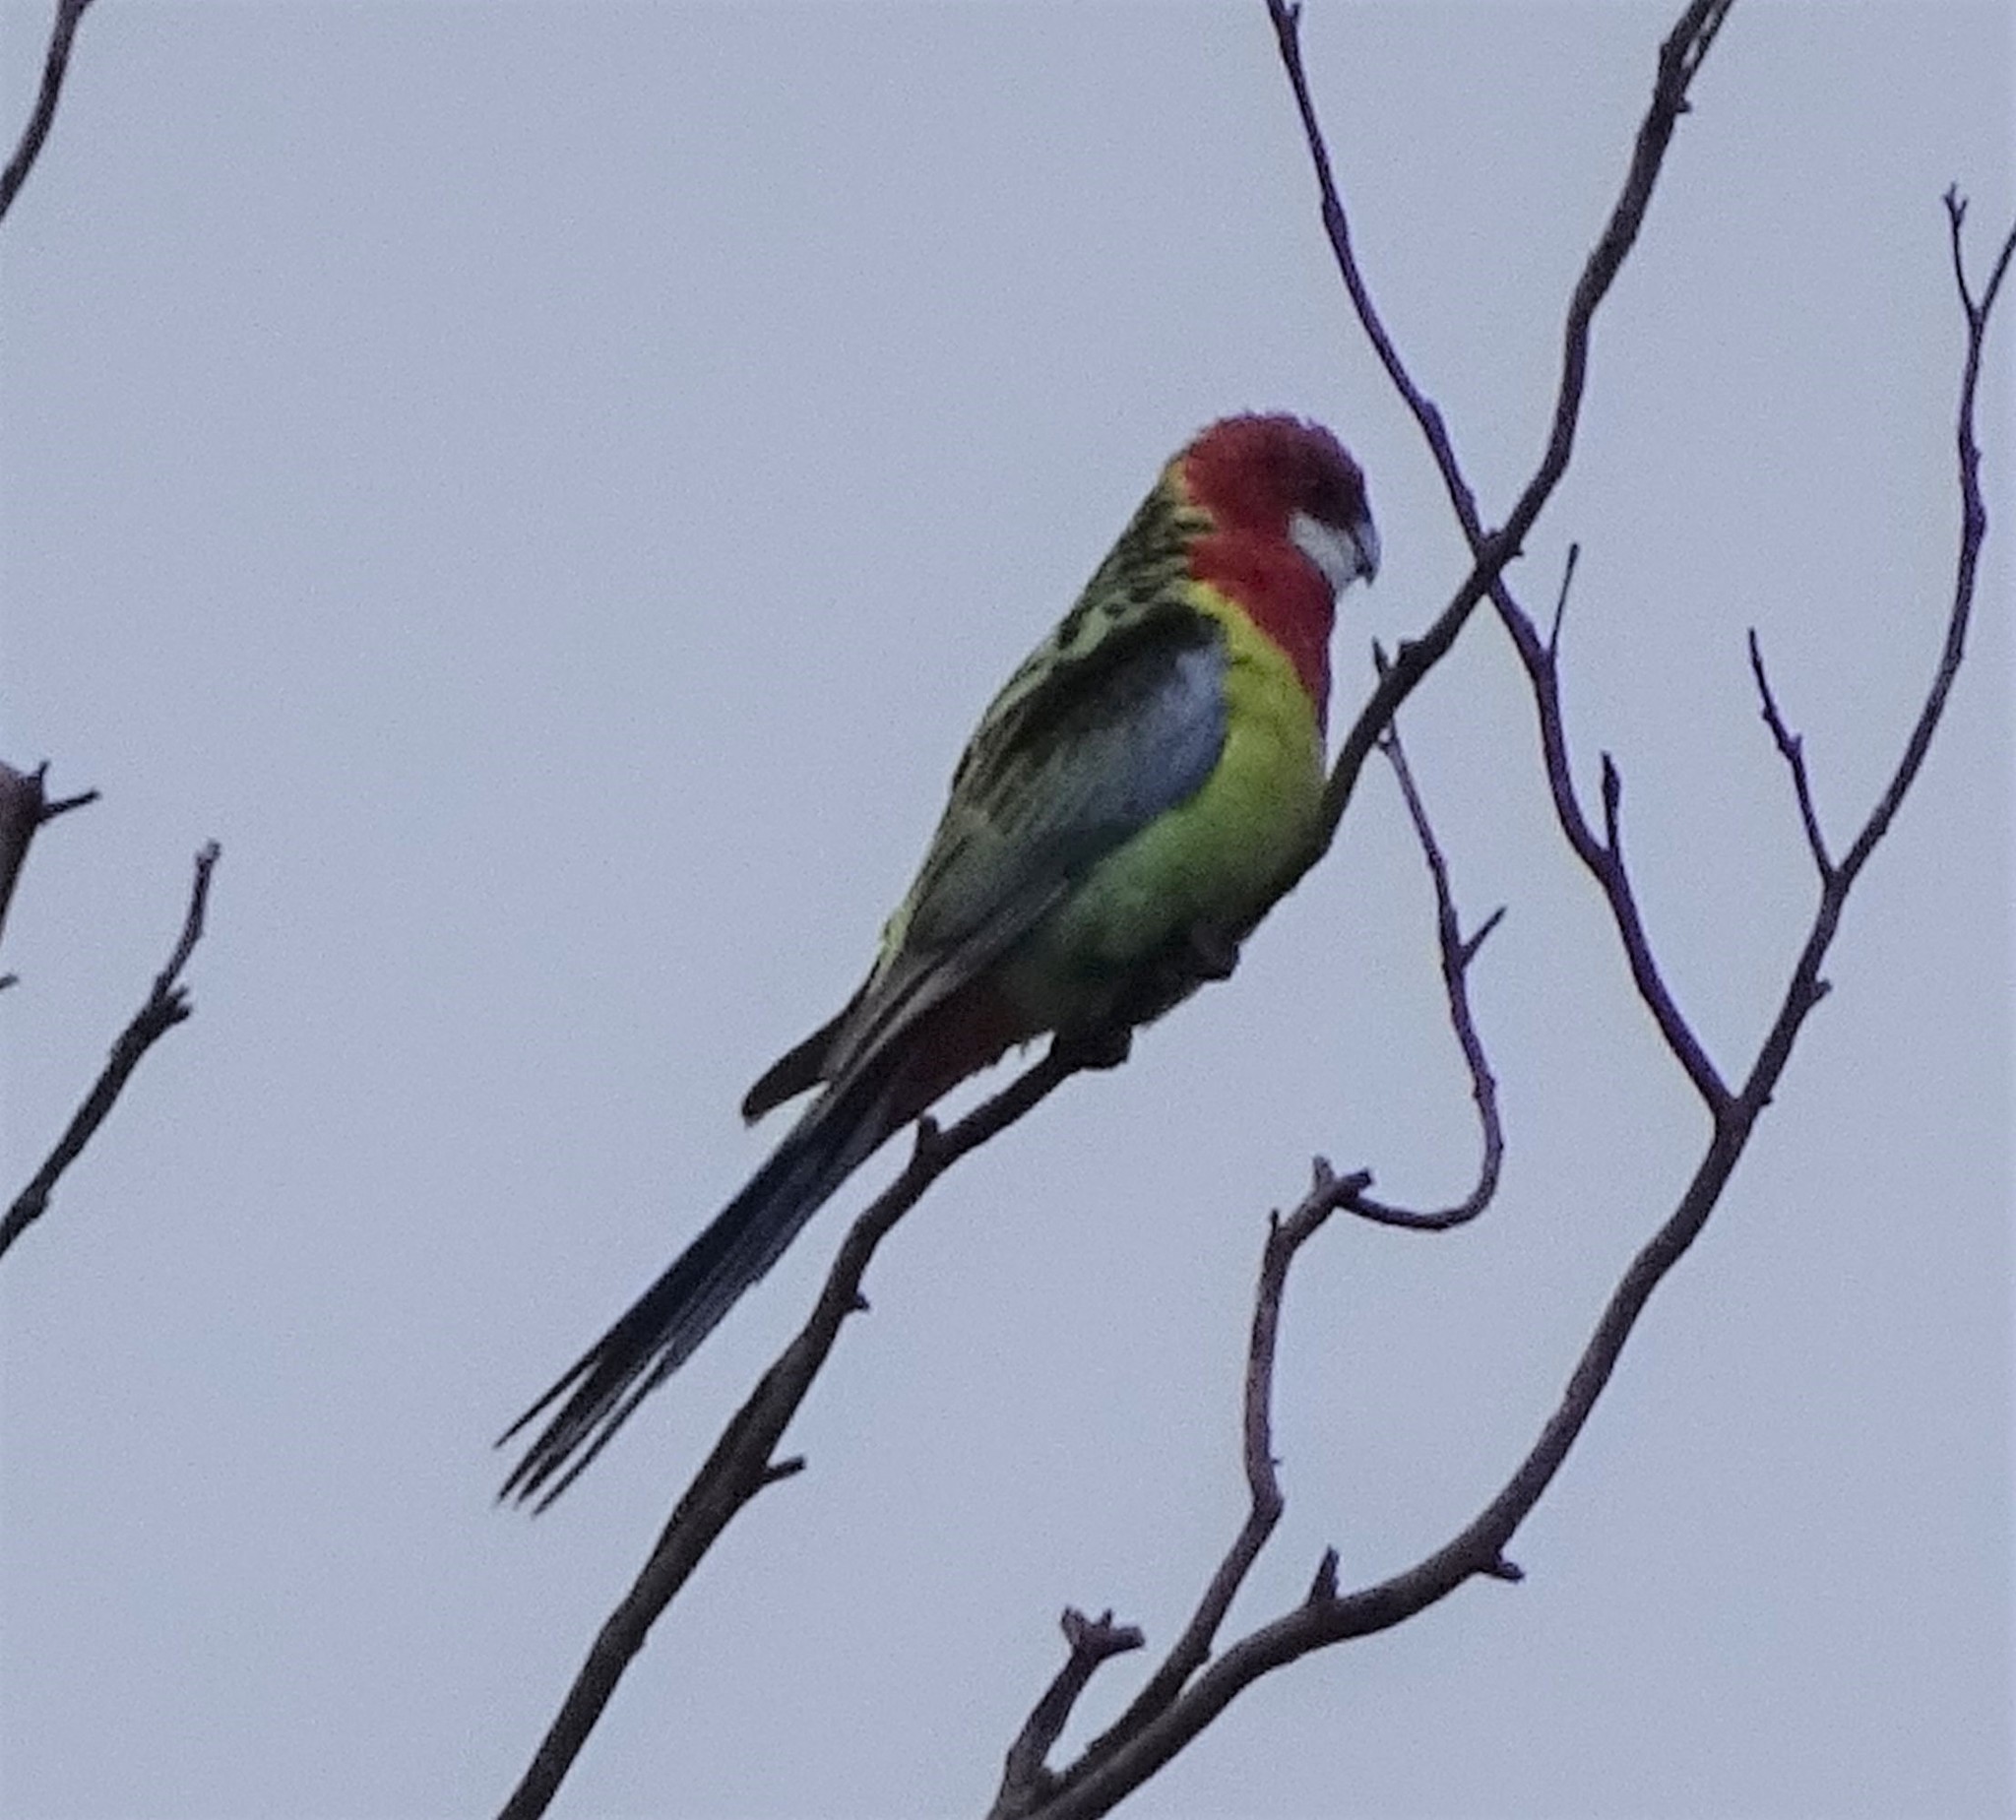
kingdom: Animalia
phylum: Chordata
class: Aves
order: Psittaciformes
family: Psittacidae
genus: Platycercus
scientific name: Platycercus eximius
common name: Eastern rosella
